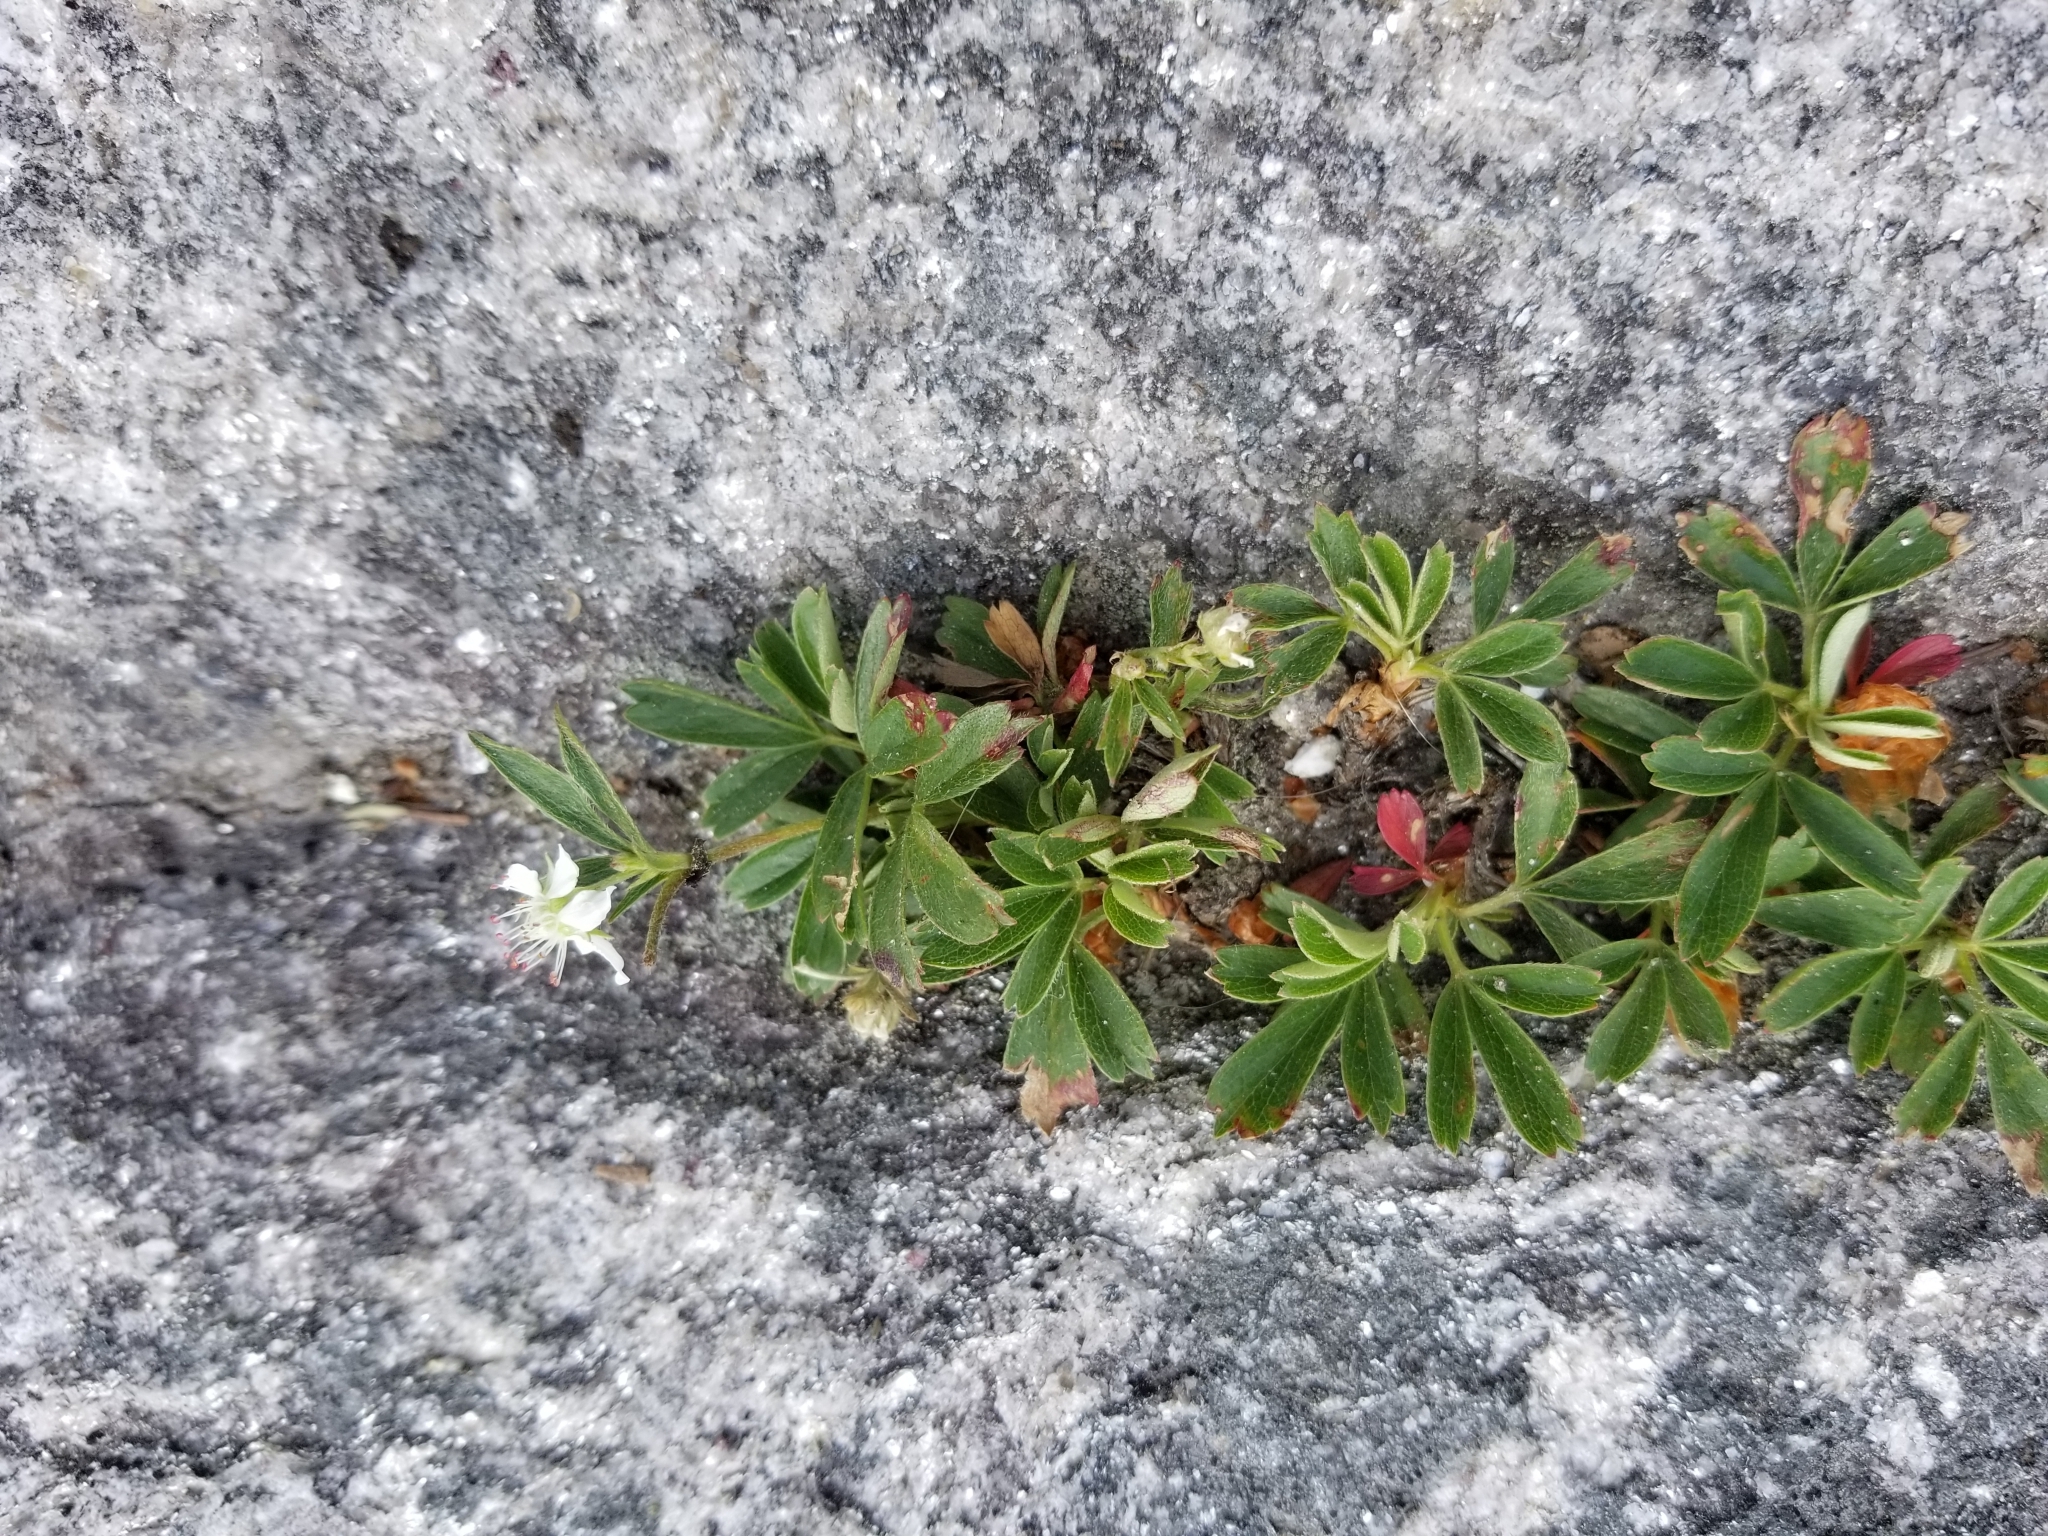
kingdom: Plantae
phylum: Tracheophyta
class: Magnoliopsida
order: Rosales
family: Rosaceae
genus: Sibbaldia
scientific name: Sibbaldia tridentata
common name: Three-toothed cinquefoil
